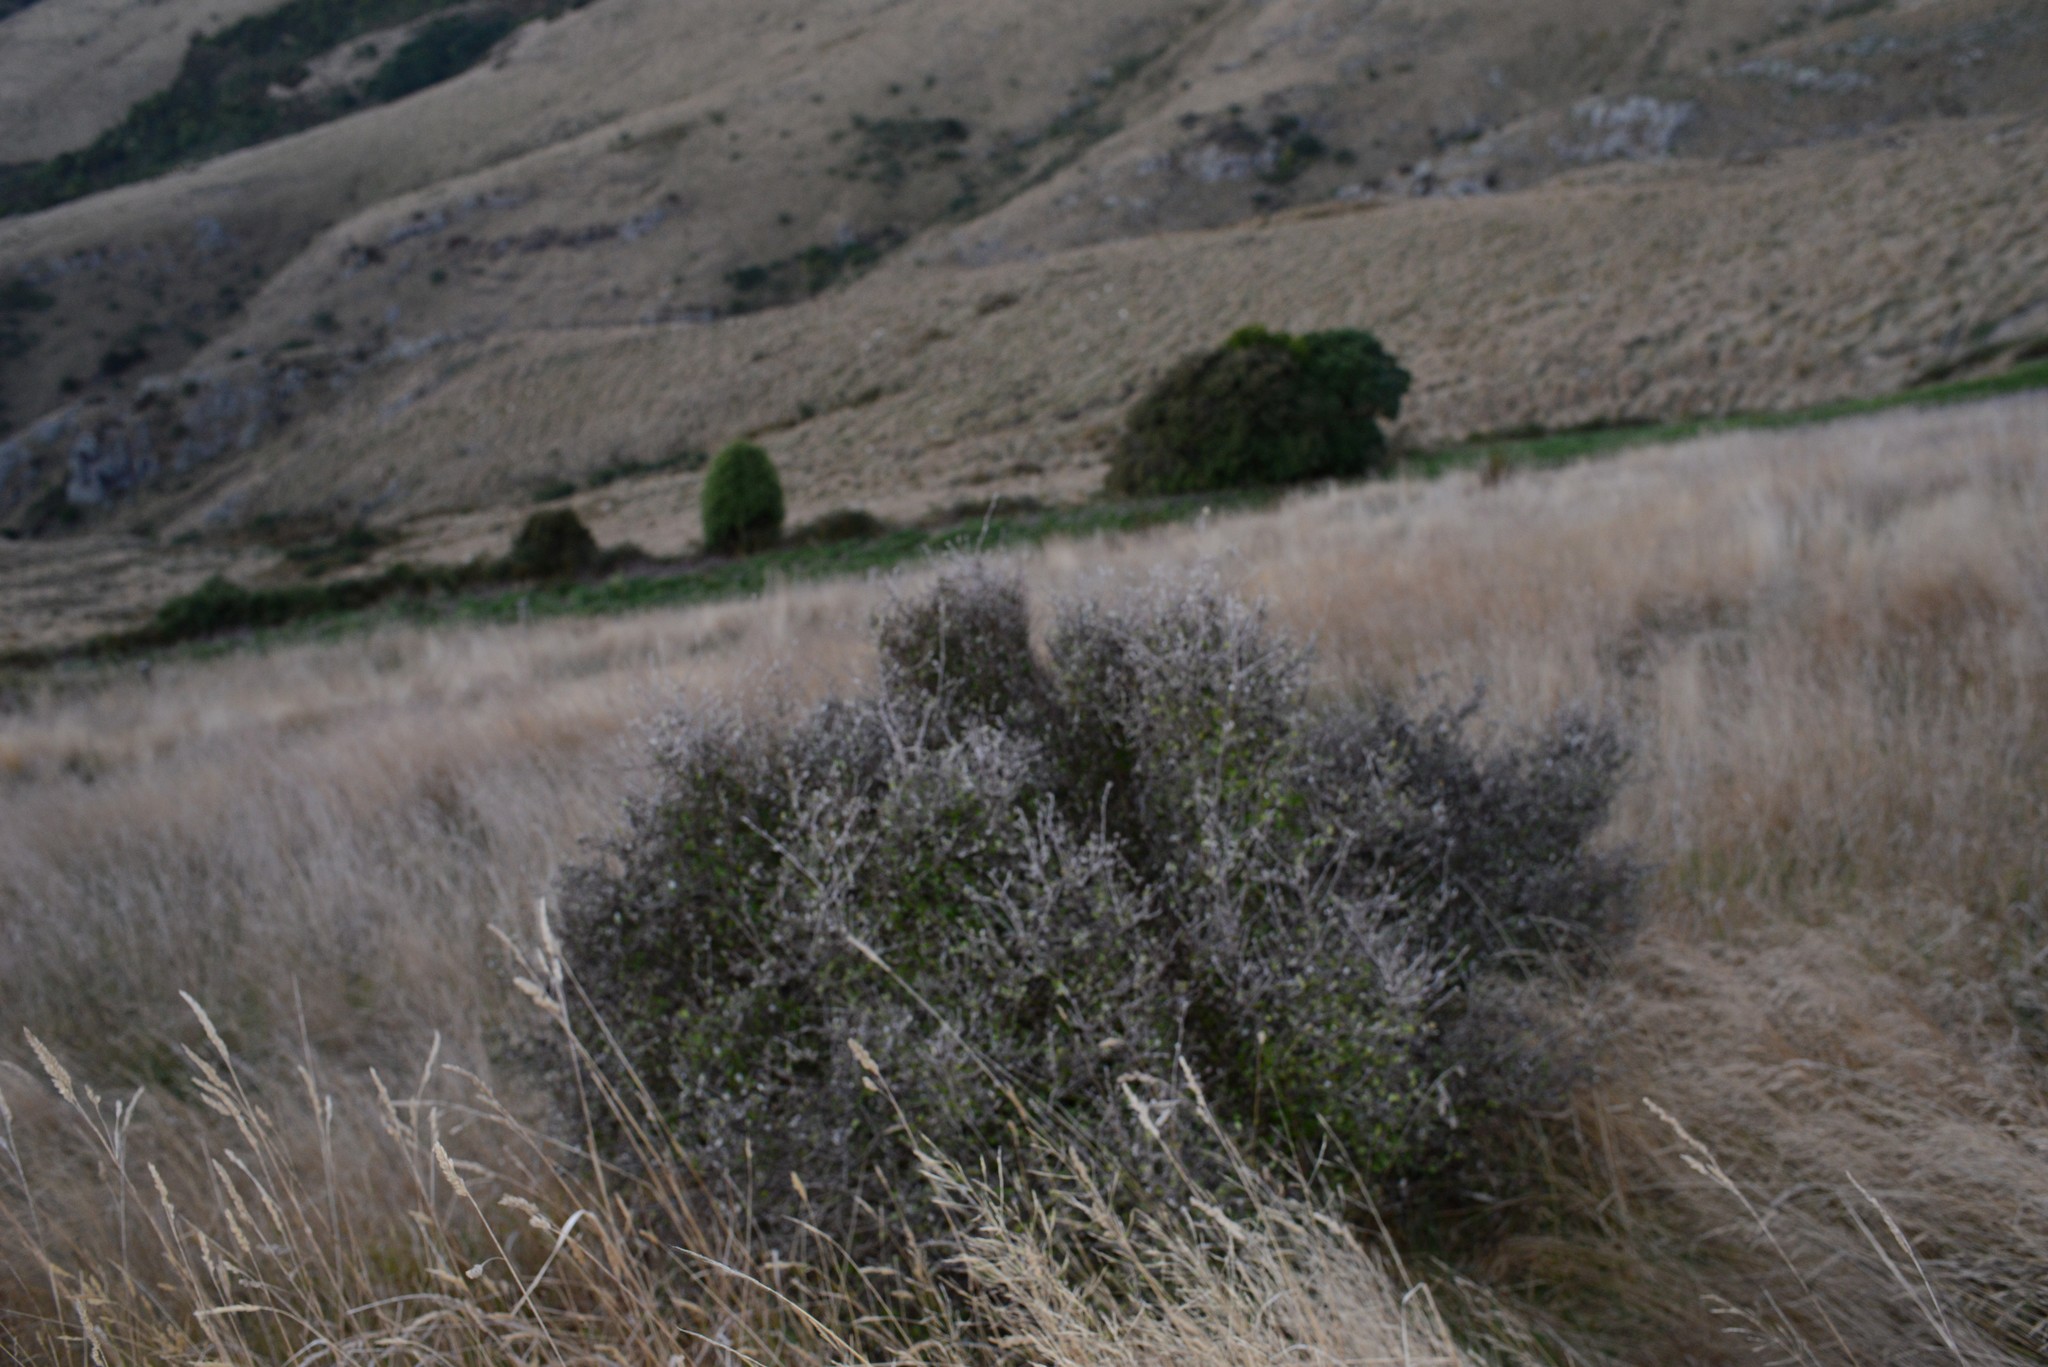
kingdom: Plantae
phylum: Tracheophyta
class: Magnoliopsida
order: Asterales
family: Argophyllaceae
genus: Corokia
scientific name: Corokia cotoneaster
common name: Wire nettingbush
